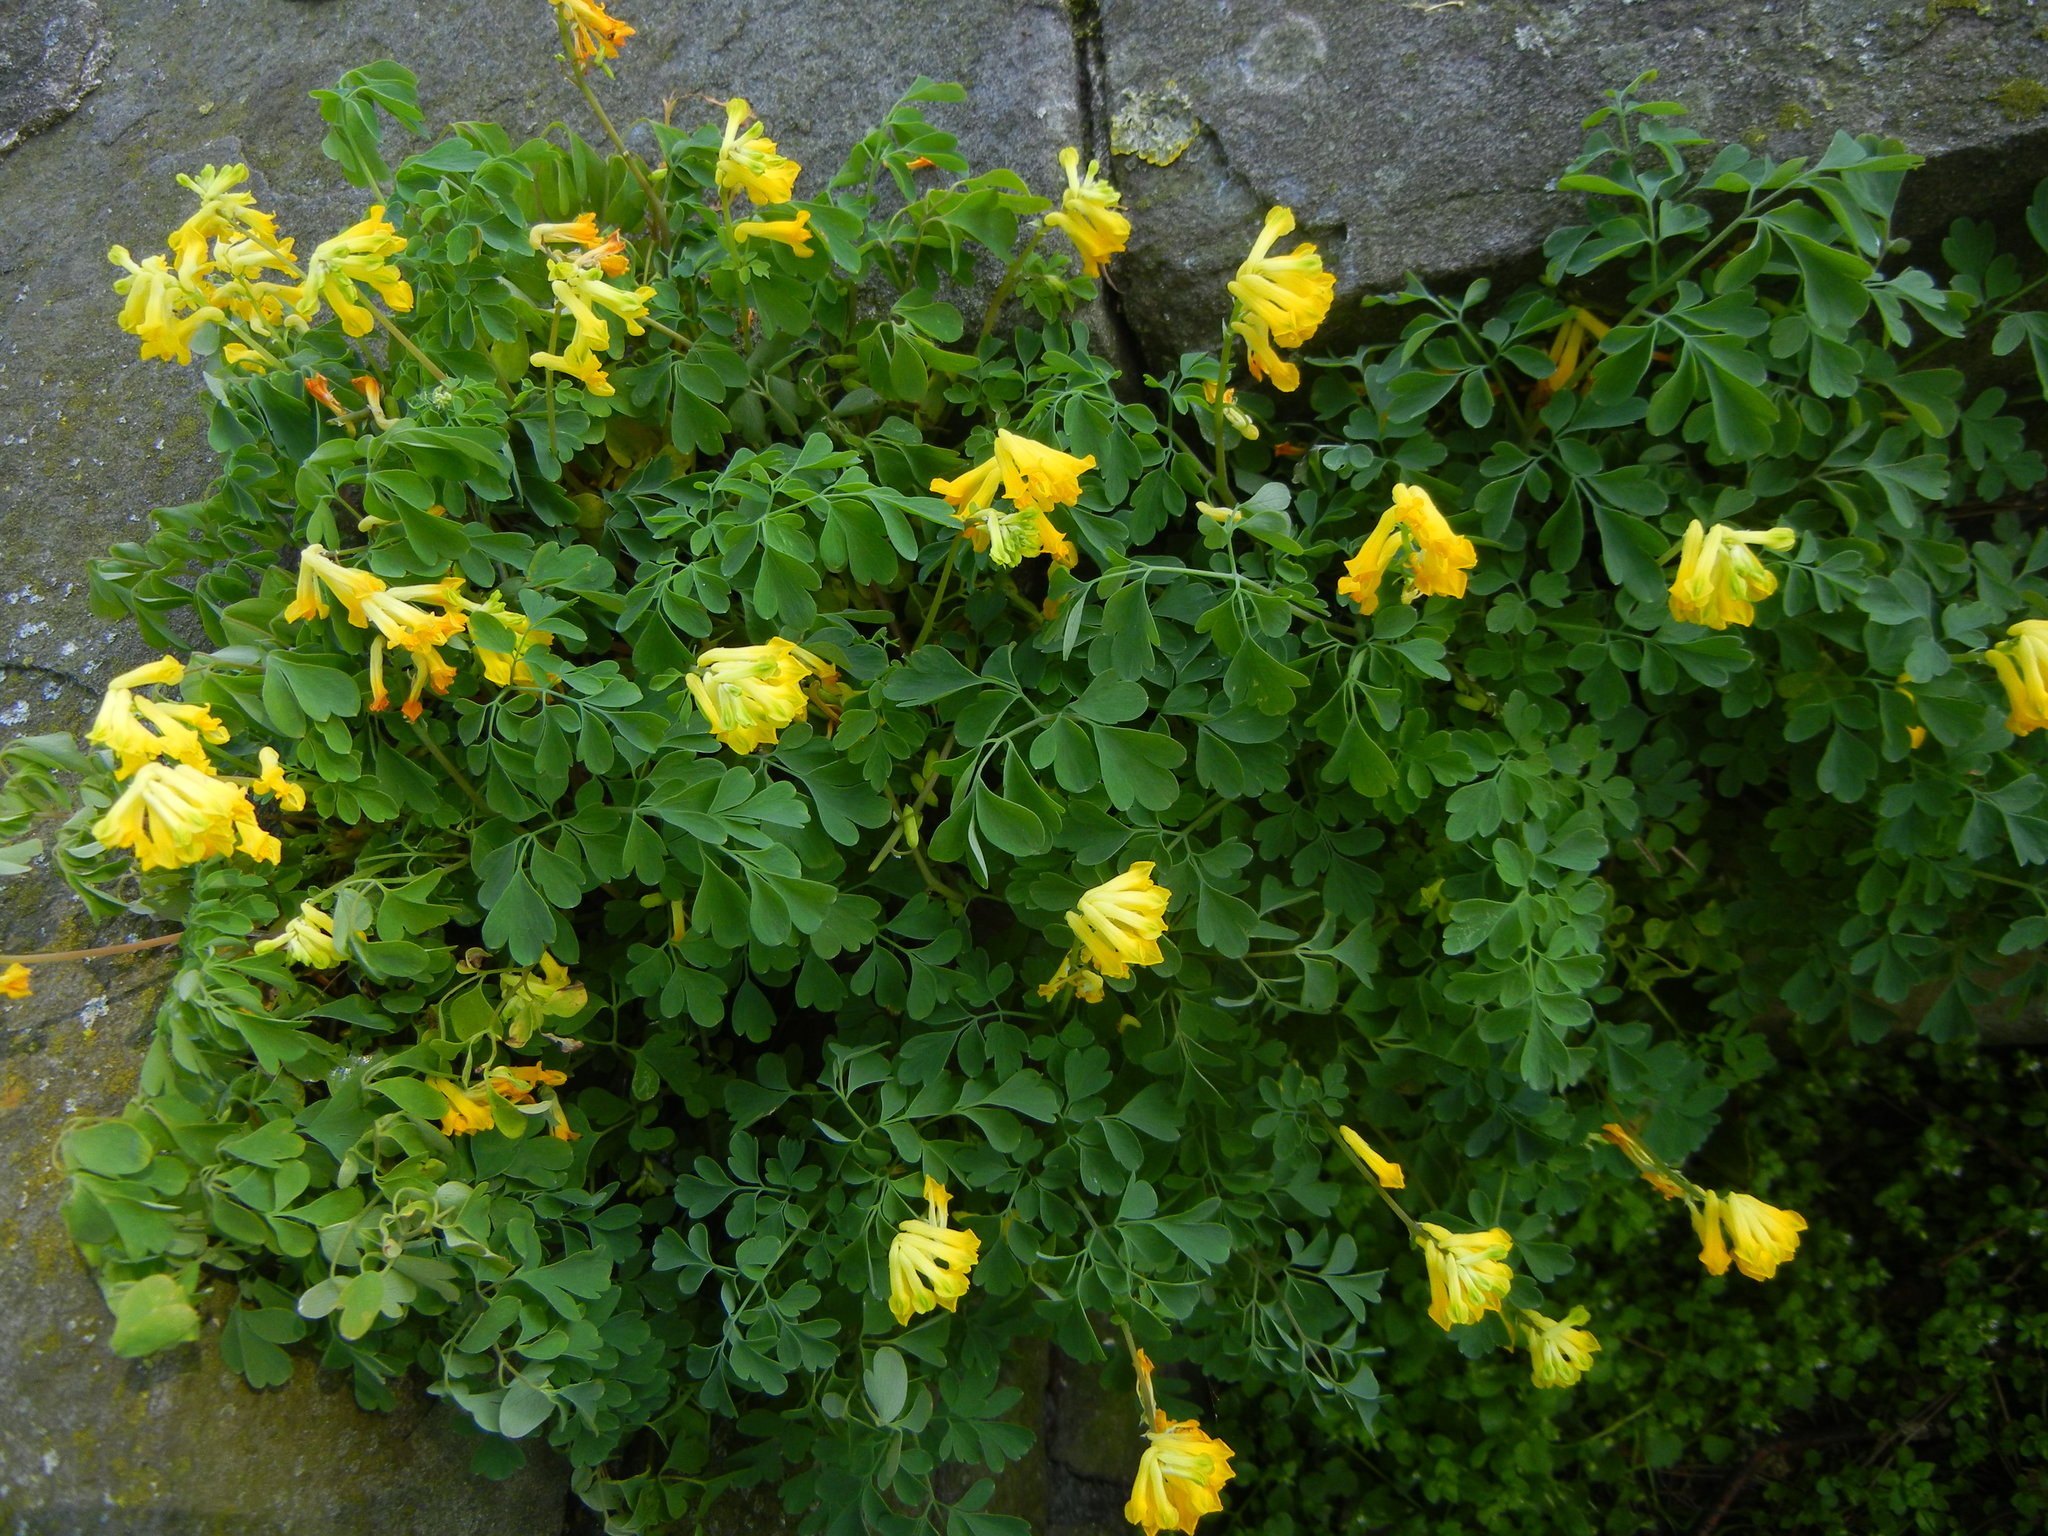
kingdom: Plantae
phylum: Tracheophyta
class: Magnoliopsida
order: Ranunculales
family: Papaveraceae
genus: Pseudofumaria
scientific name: Pseudofumaria lutea
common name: Yellow corydalis
